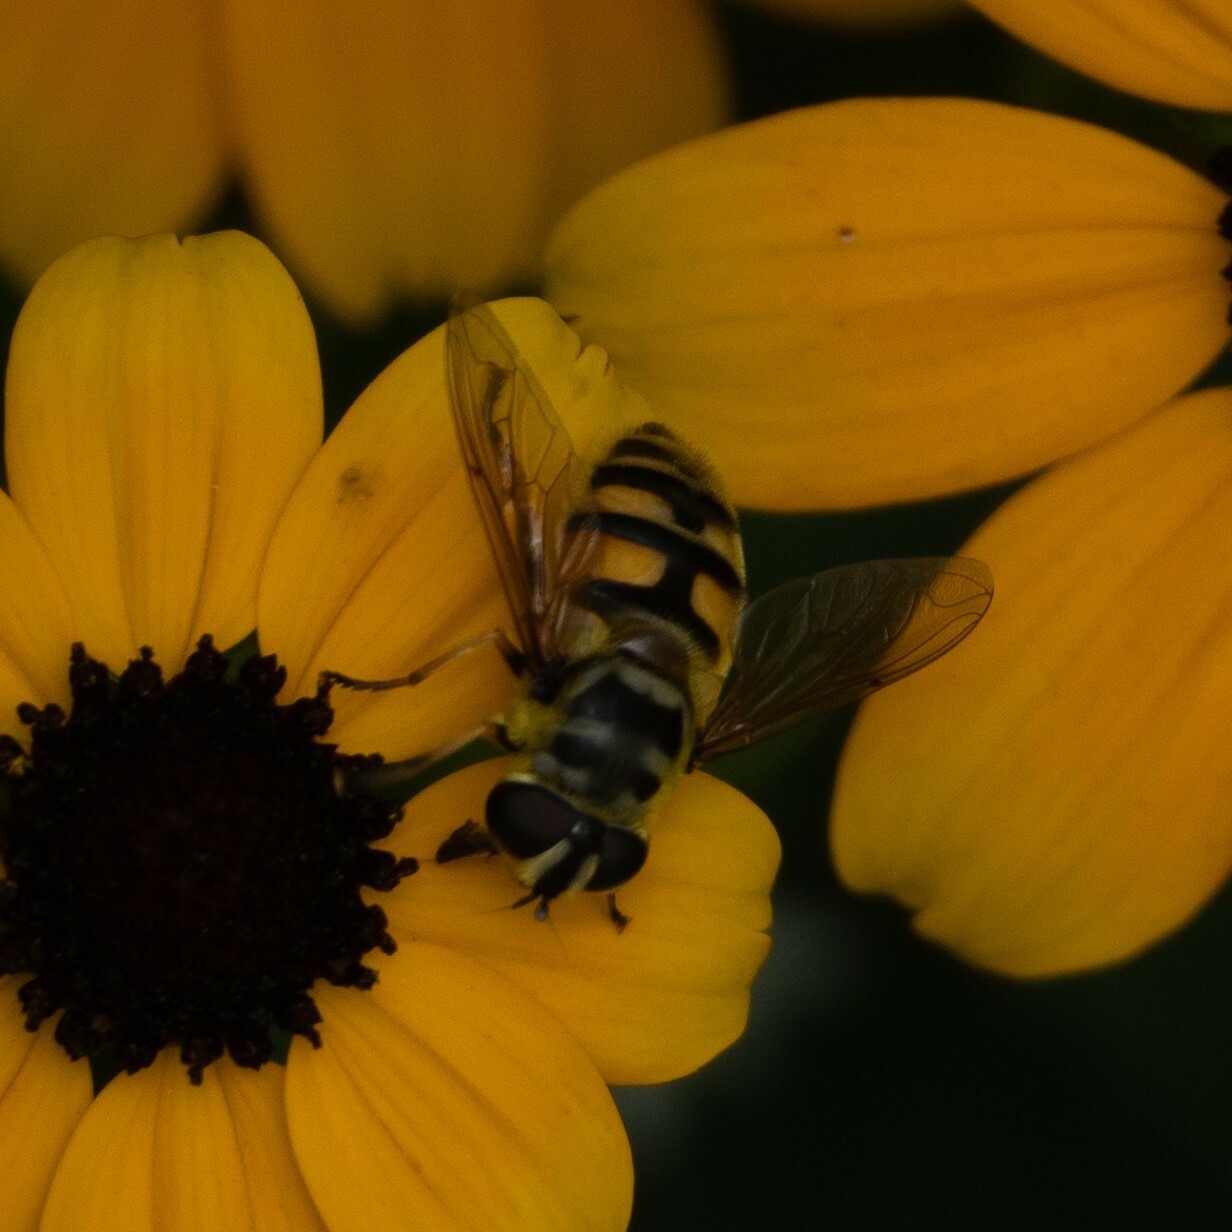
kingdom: Animalia
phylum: Arthropoda
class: Insecta
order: Diptera
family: Syrphidae
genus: Myathropa
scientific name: Myathropa florea
